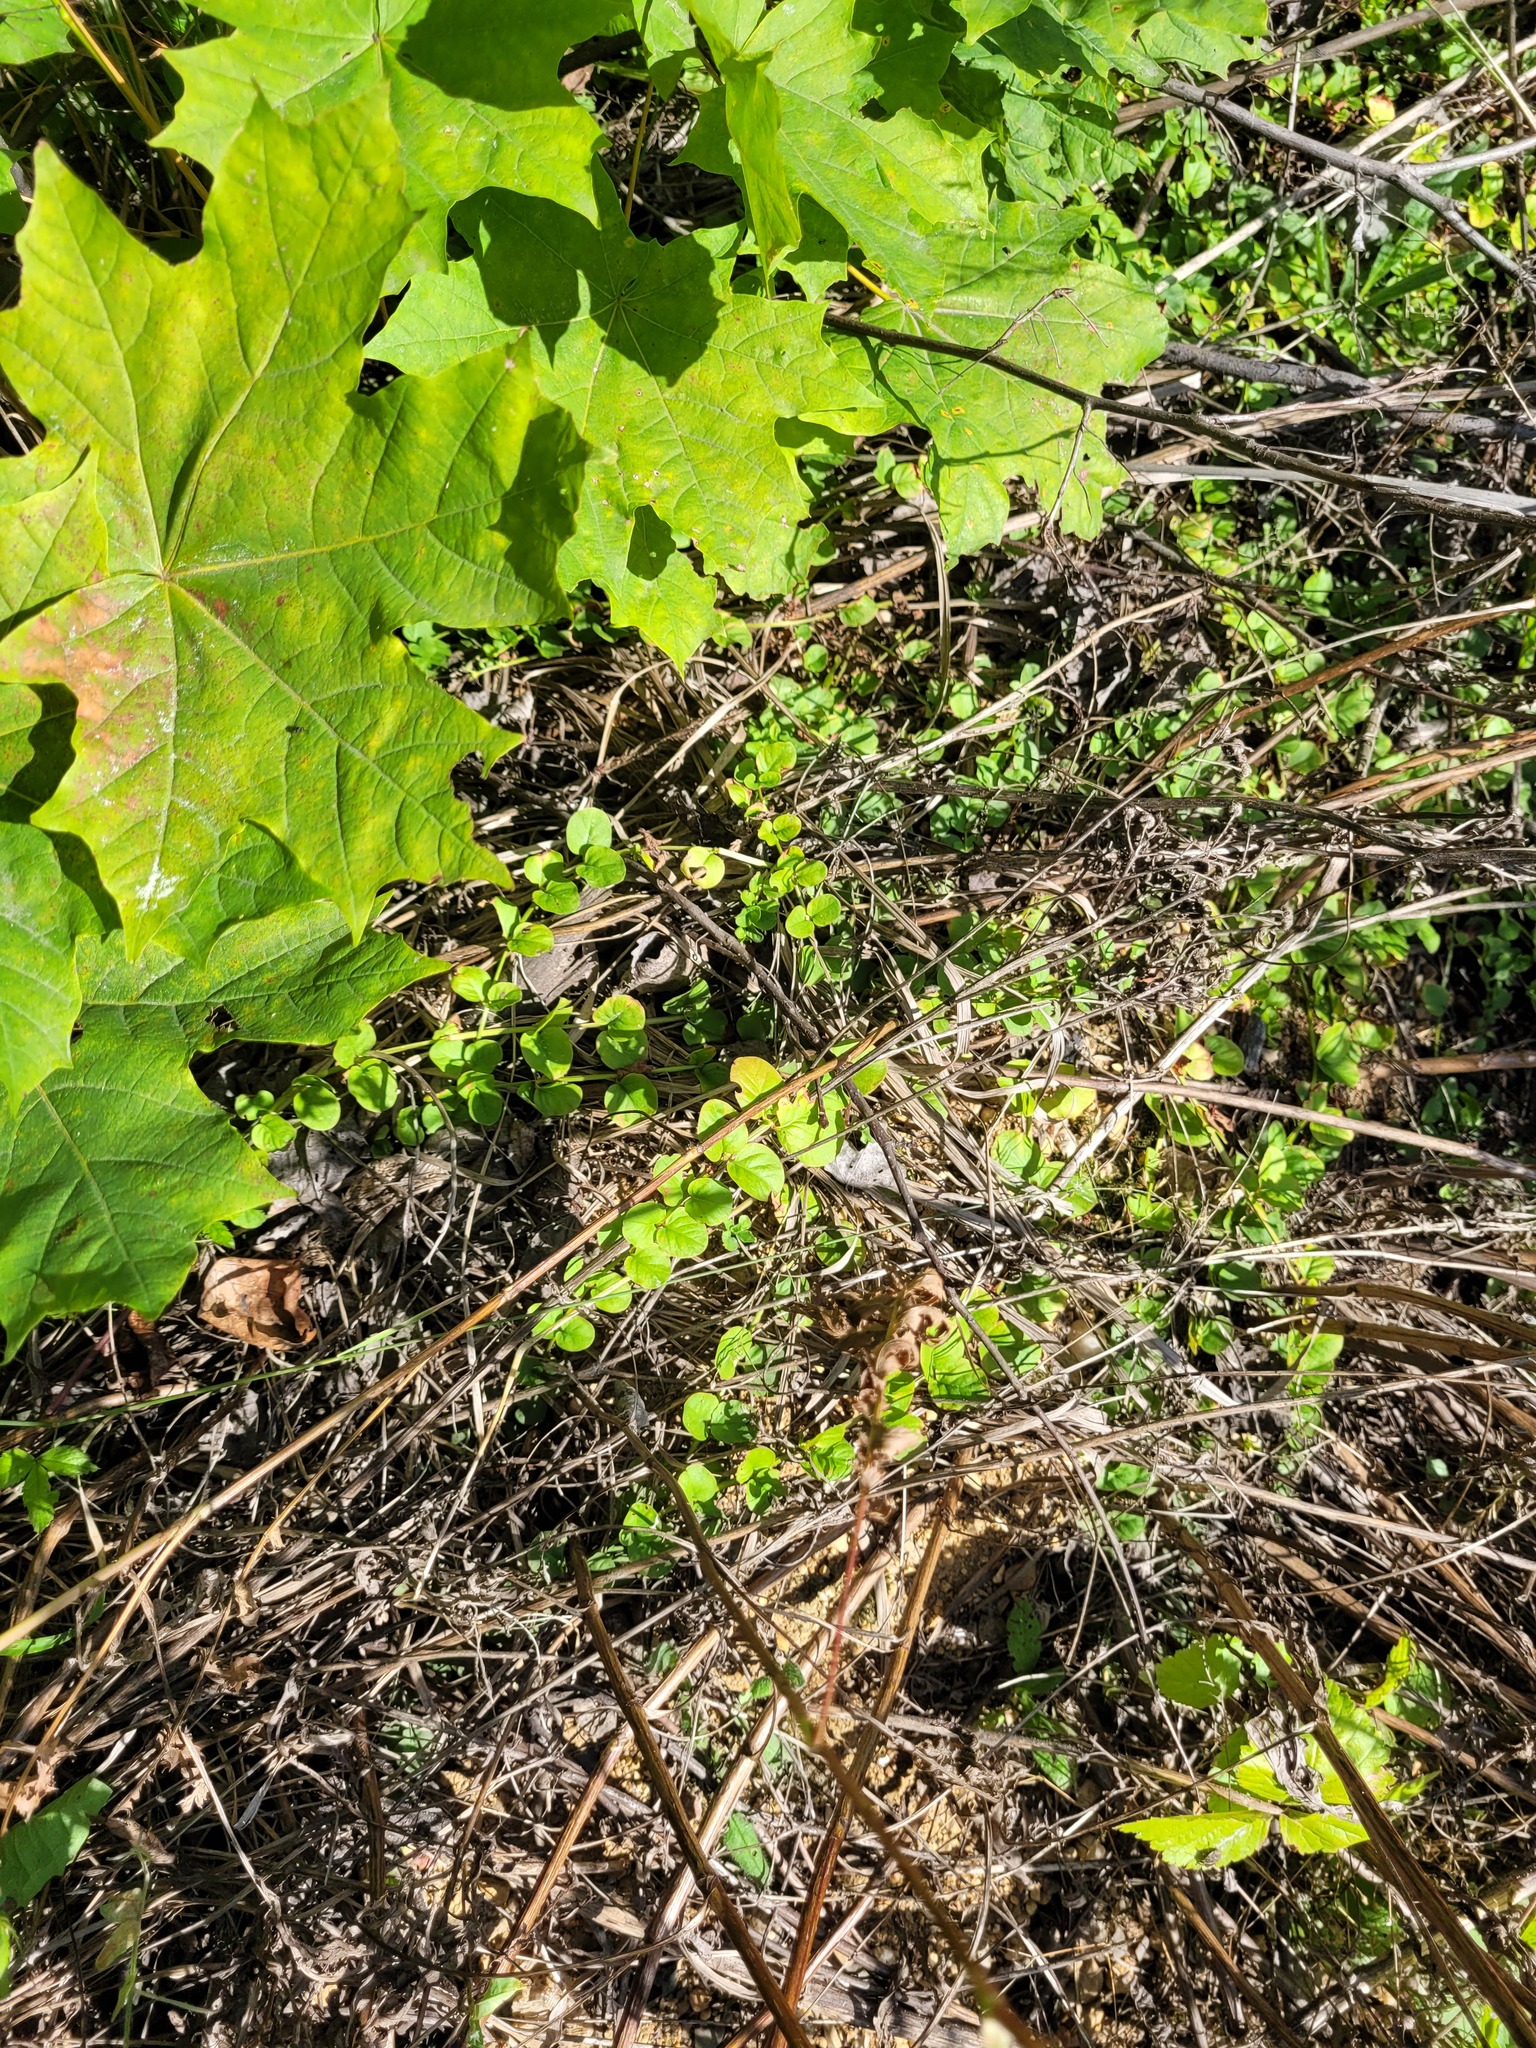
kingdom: Plantae
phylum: Tracheophyta
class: Magnoliopsida
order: Ericales
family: Primulaceae
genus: Lysimachia
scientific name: Lysimachia nummularia
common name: Moneywort
